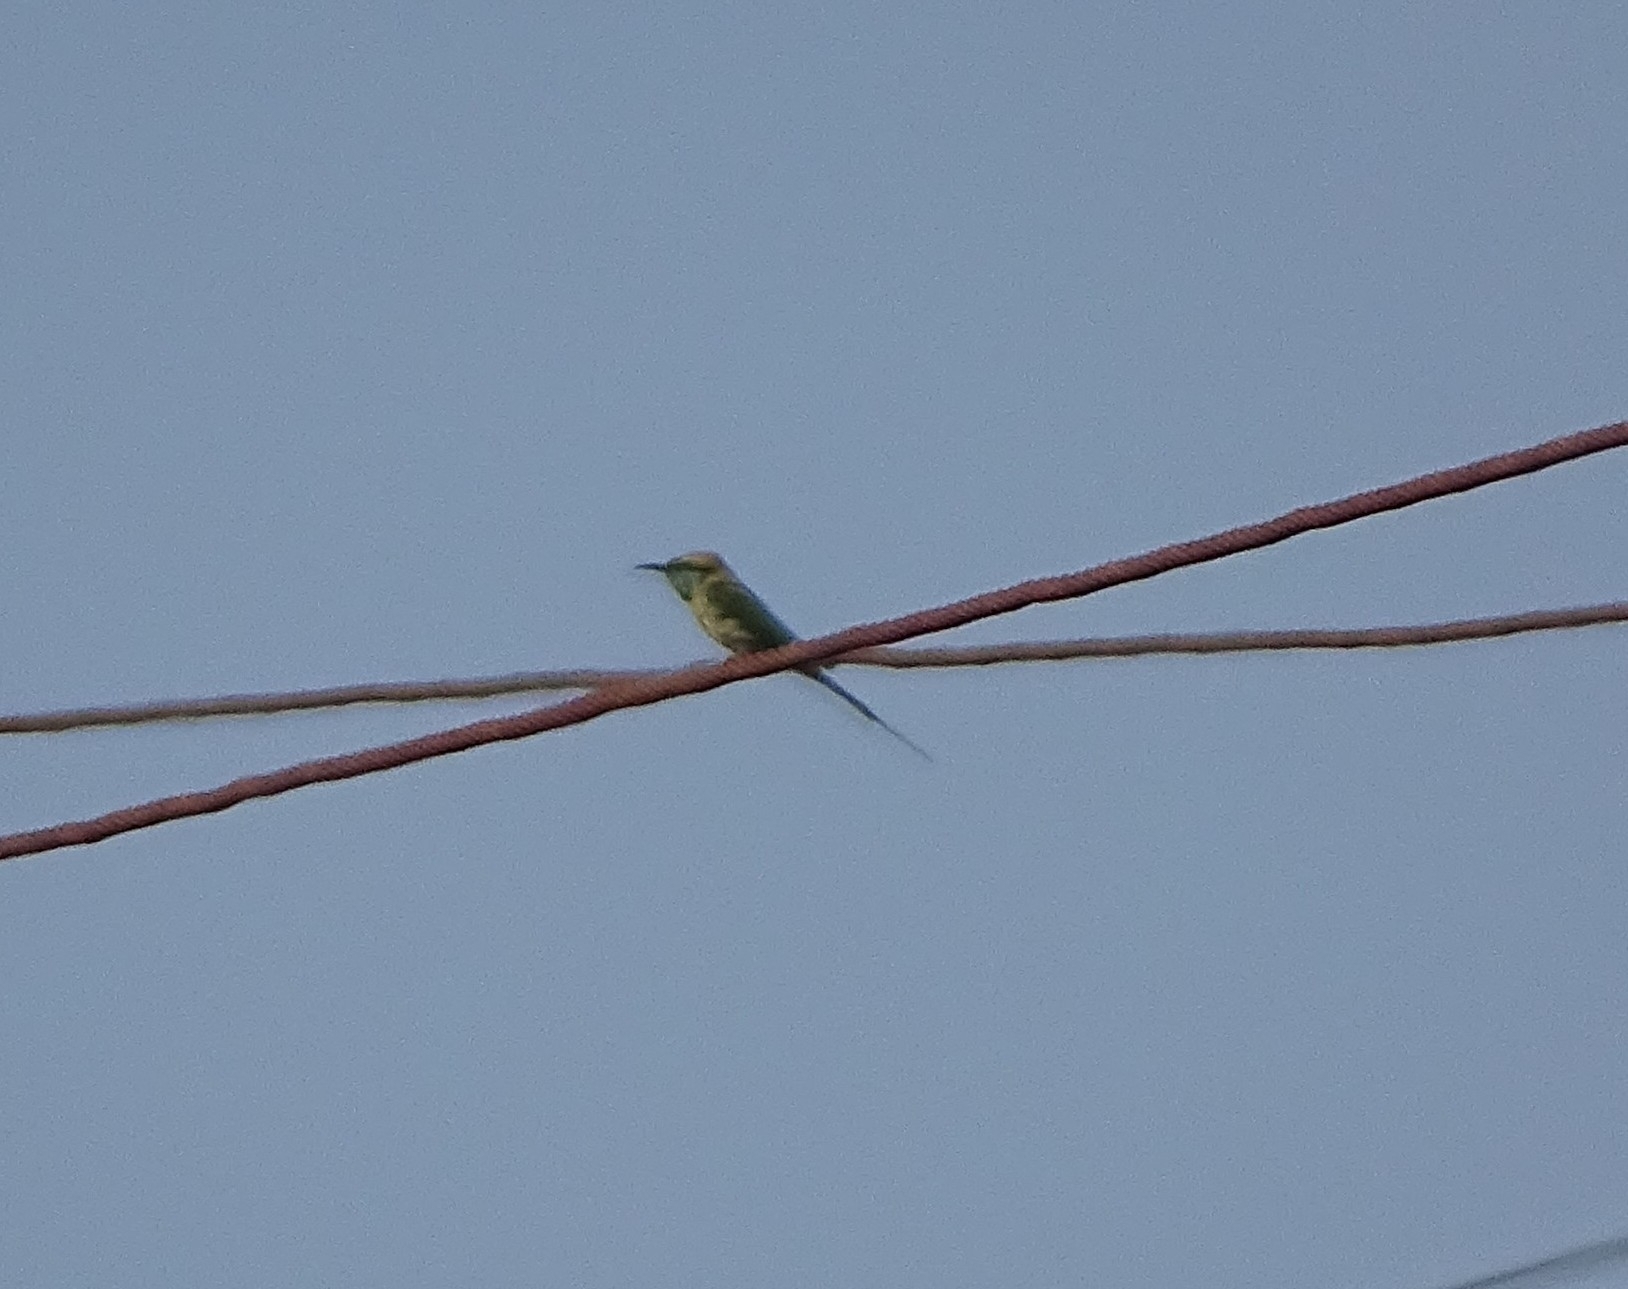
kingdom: Animalia
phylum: Chordata
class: Aves
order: Coraciiformes
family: Meropidae
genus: Merops
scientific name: Merops orientalis
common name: Green bee-eater
